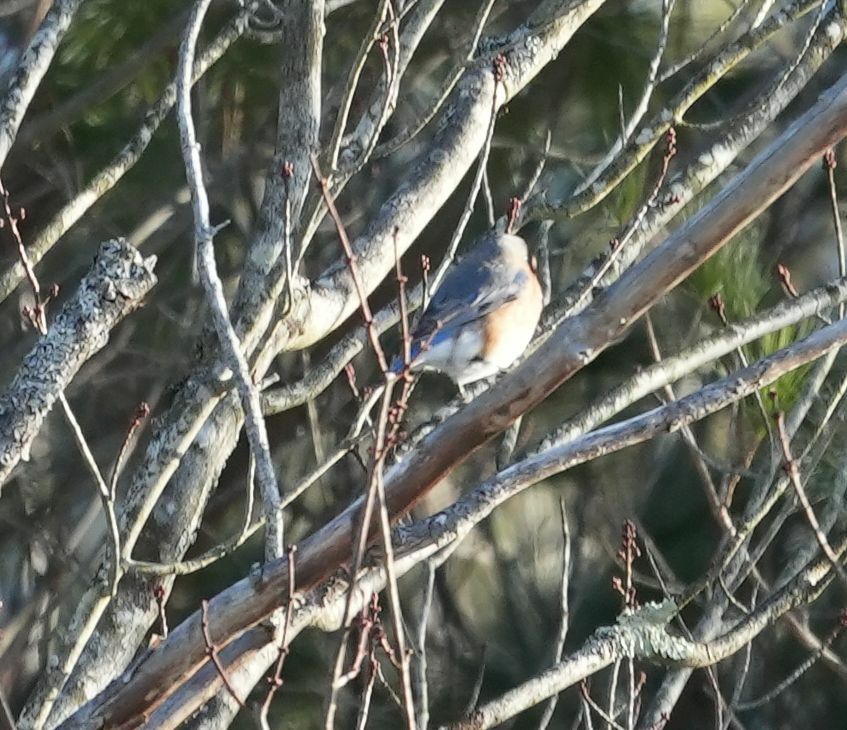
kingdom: Animalia
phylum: Chordata
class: Aves
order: Passeriformes
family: Turdidae
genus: Sialia
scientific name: Sialia sialis
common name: Eastern bluebird
